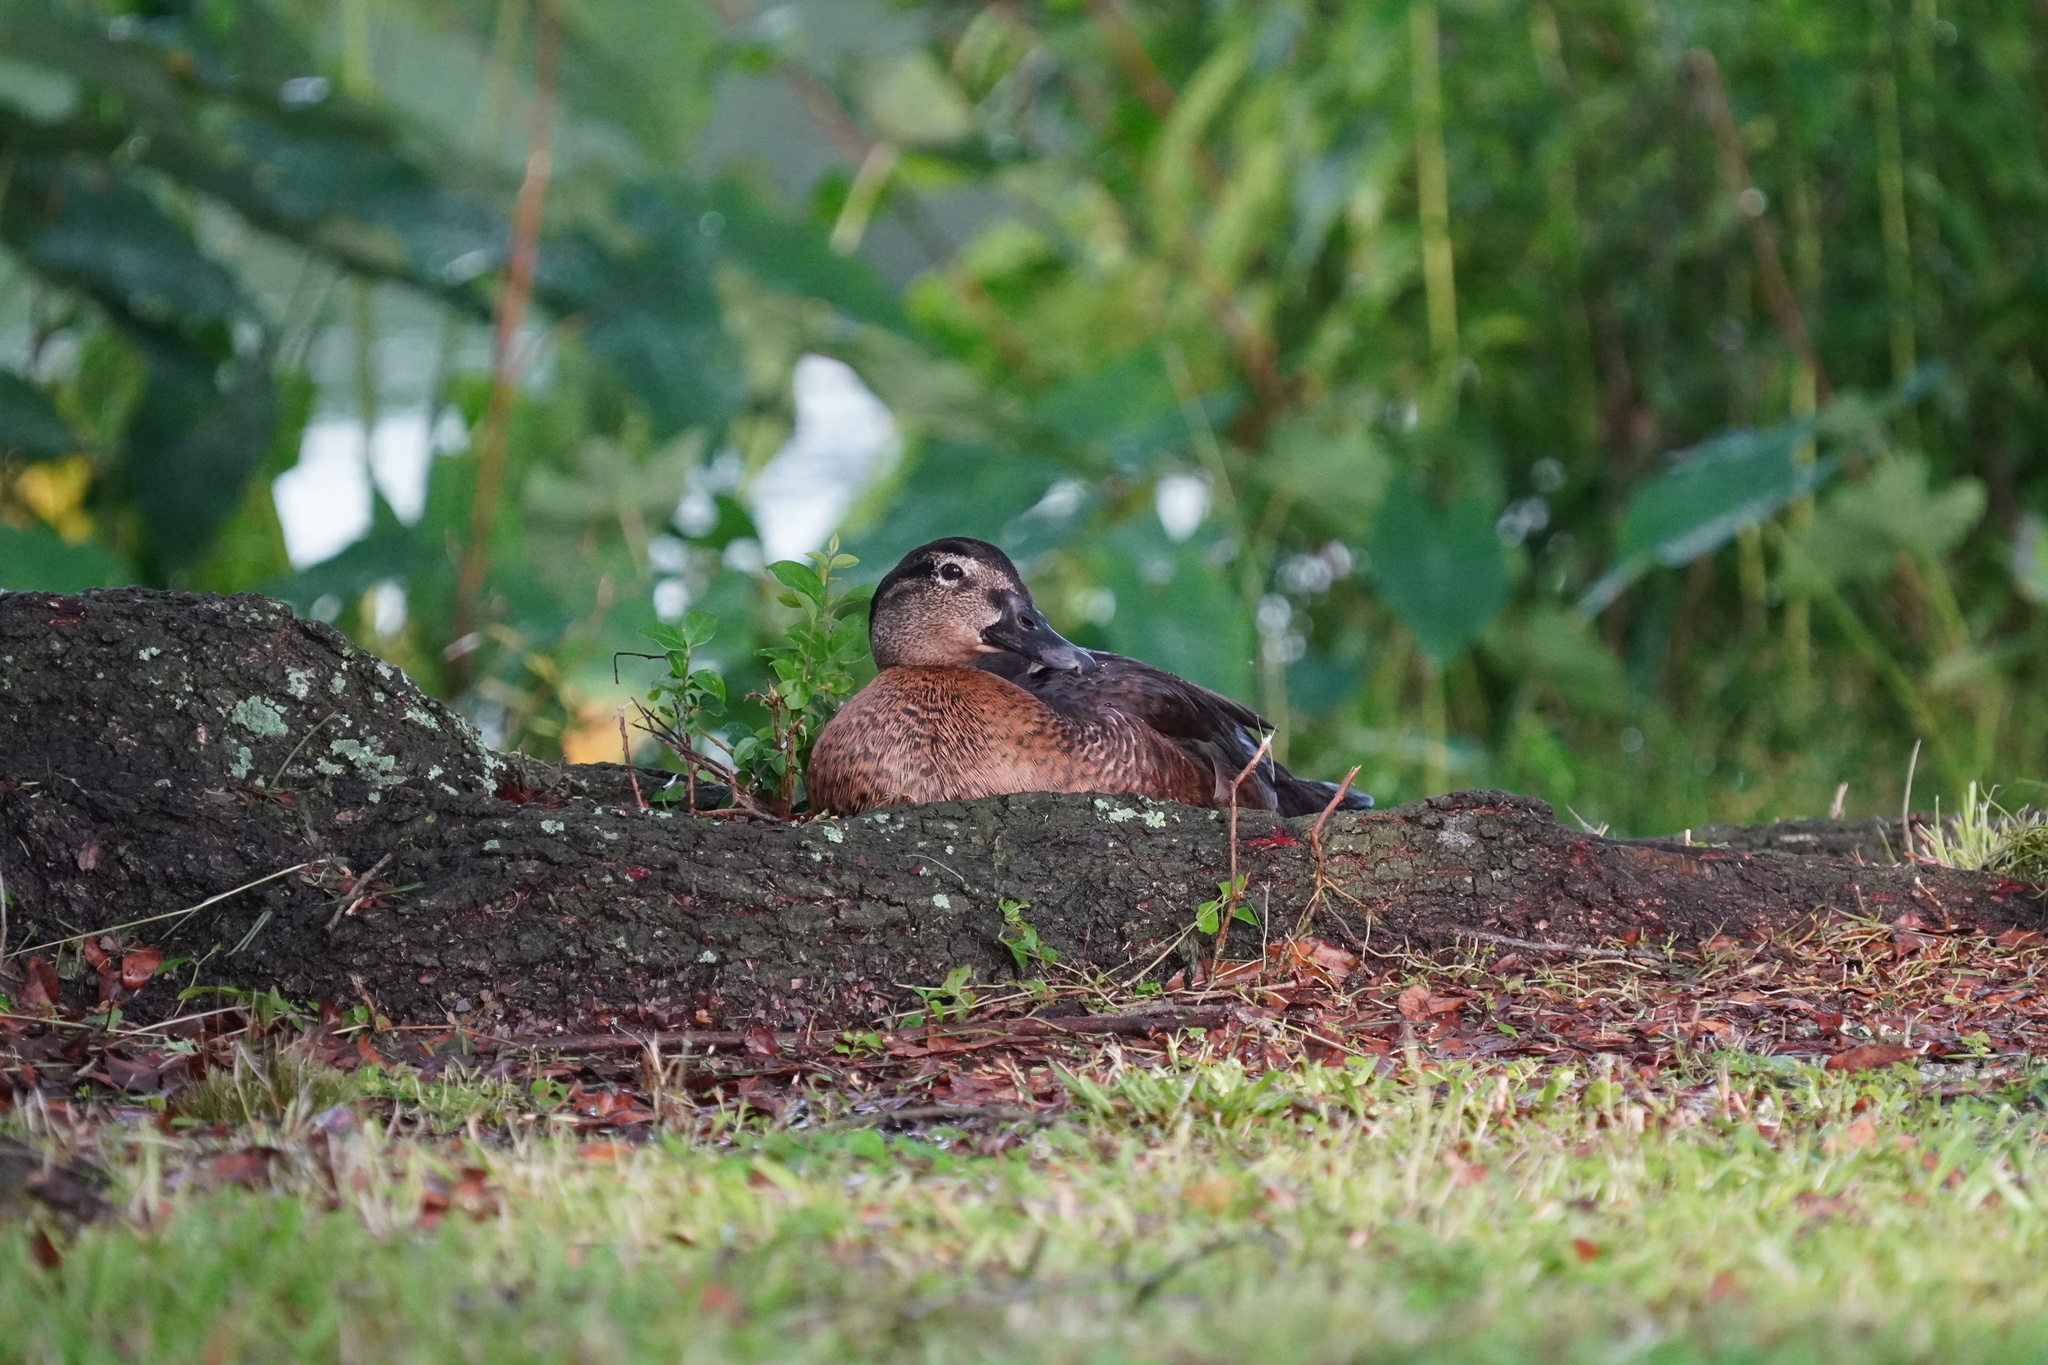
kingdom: Animalia
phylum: Chordata
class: Aves
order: Anseriformes
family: Anatidae
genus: Aix
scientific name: Aix sponsa
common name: Wood duck
